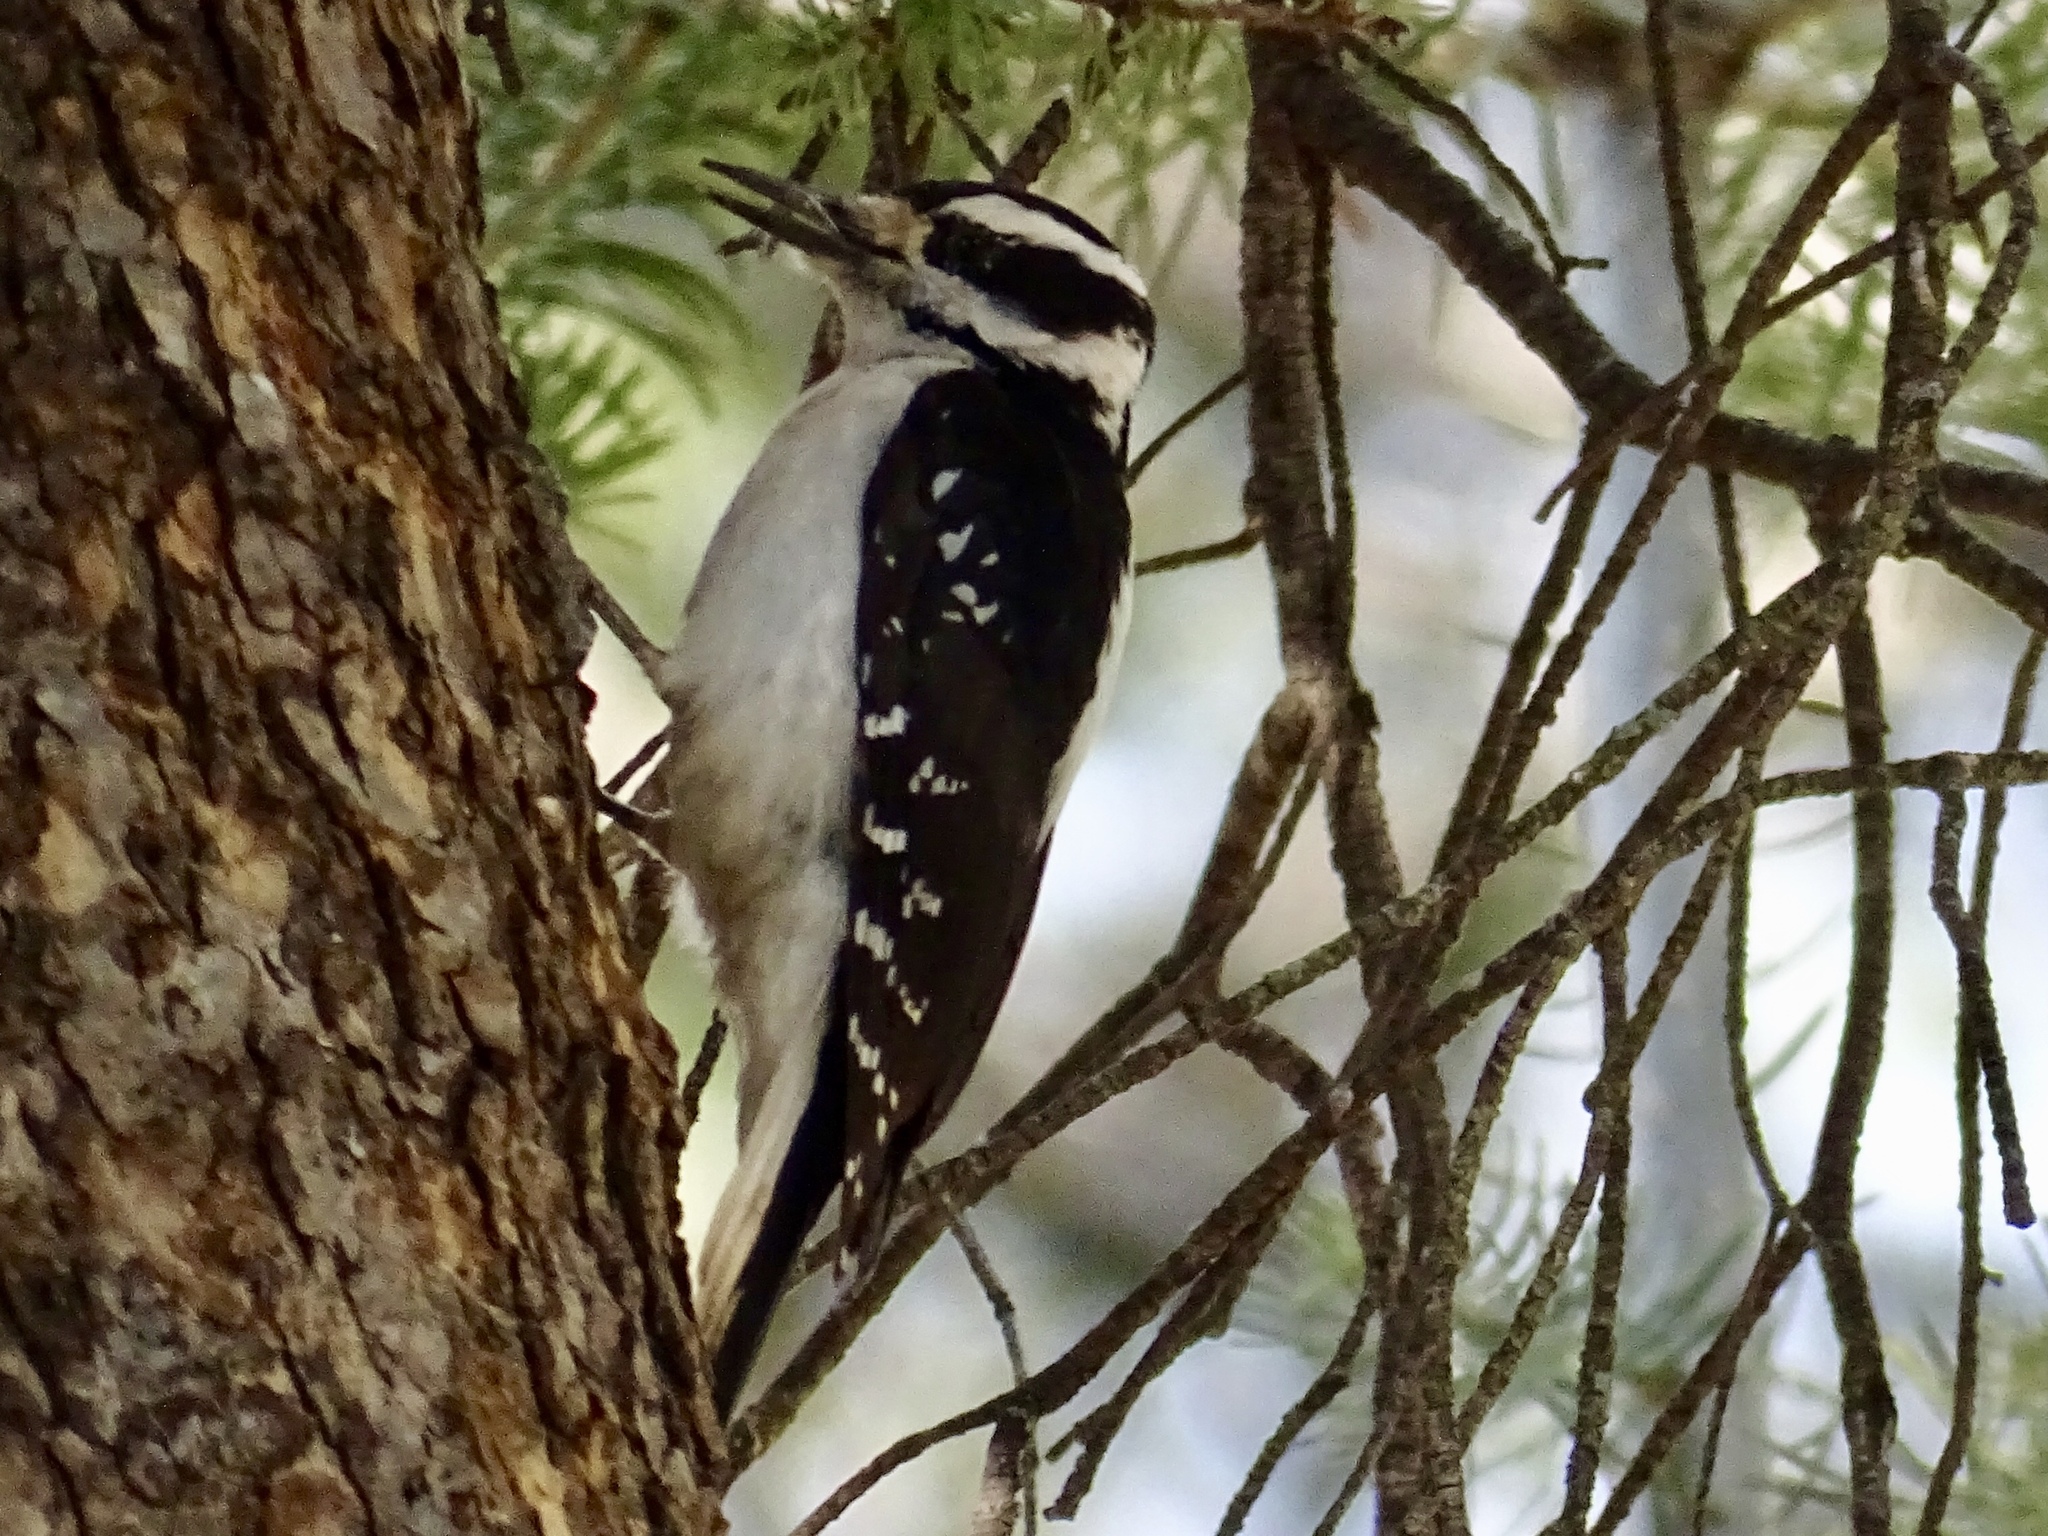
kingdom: Animalia
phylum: Chordata
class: Aves
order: Piciformes
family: Picidae
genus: Leuconotopicus
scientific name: Leuconotopicus villosus
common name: Hairy woodpecker
